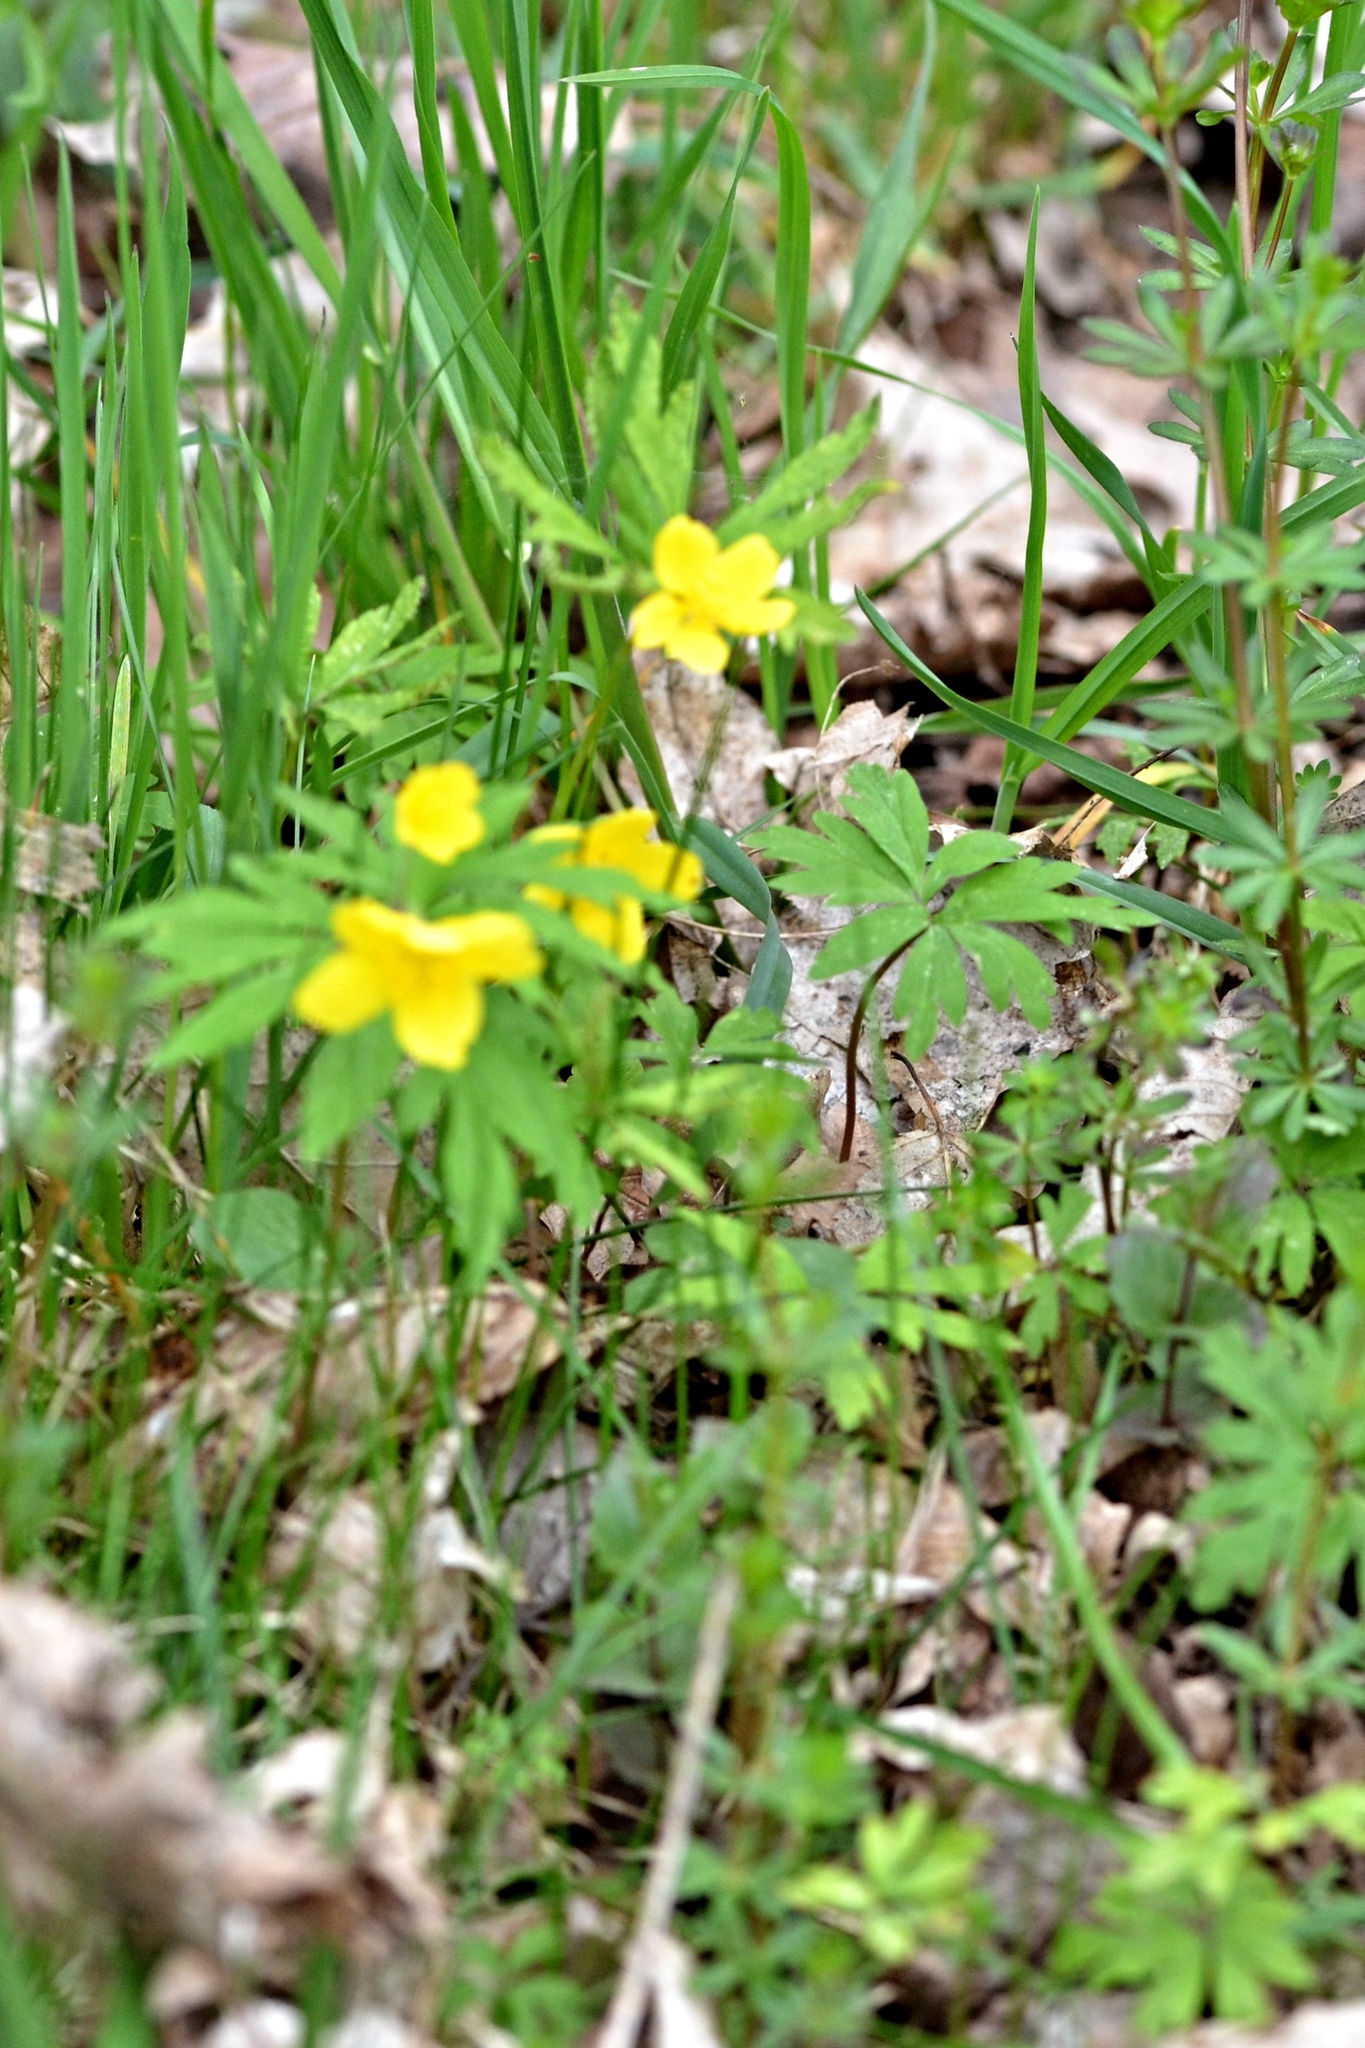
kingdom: Plantae
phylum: Tracheophyta
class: Magnoliopsida
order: Ranunculales
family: Ranunculaceae
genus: Anemone
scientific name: Anemone ranunculoides
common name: Yellow anemone
